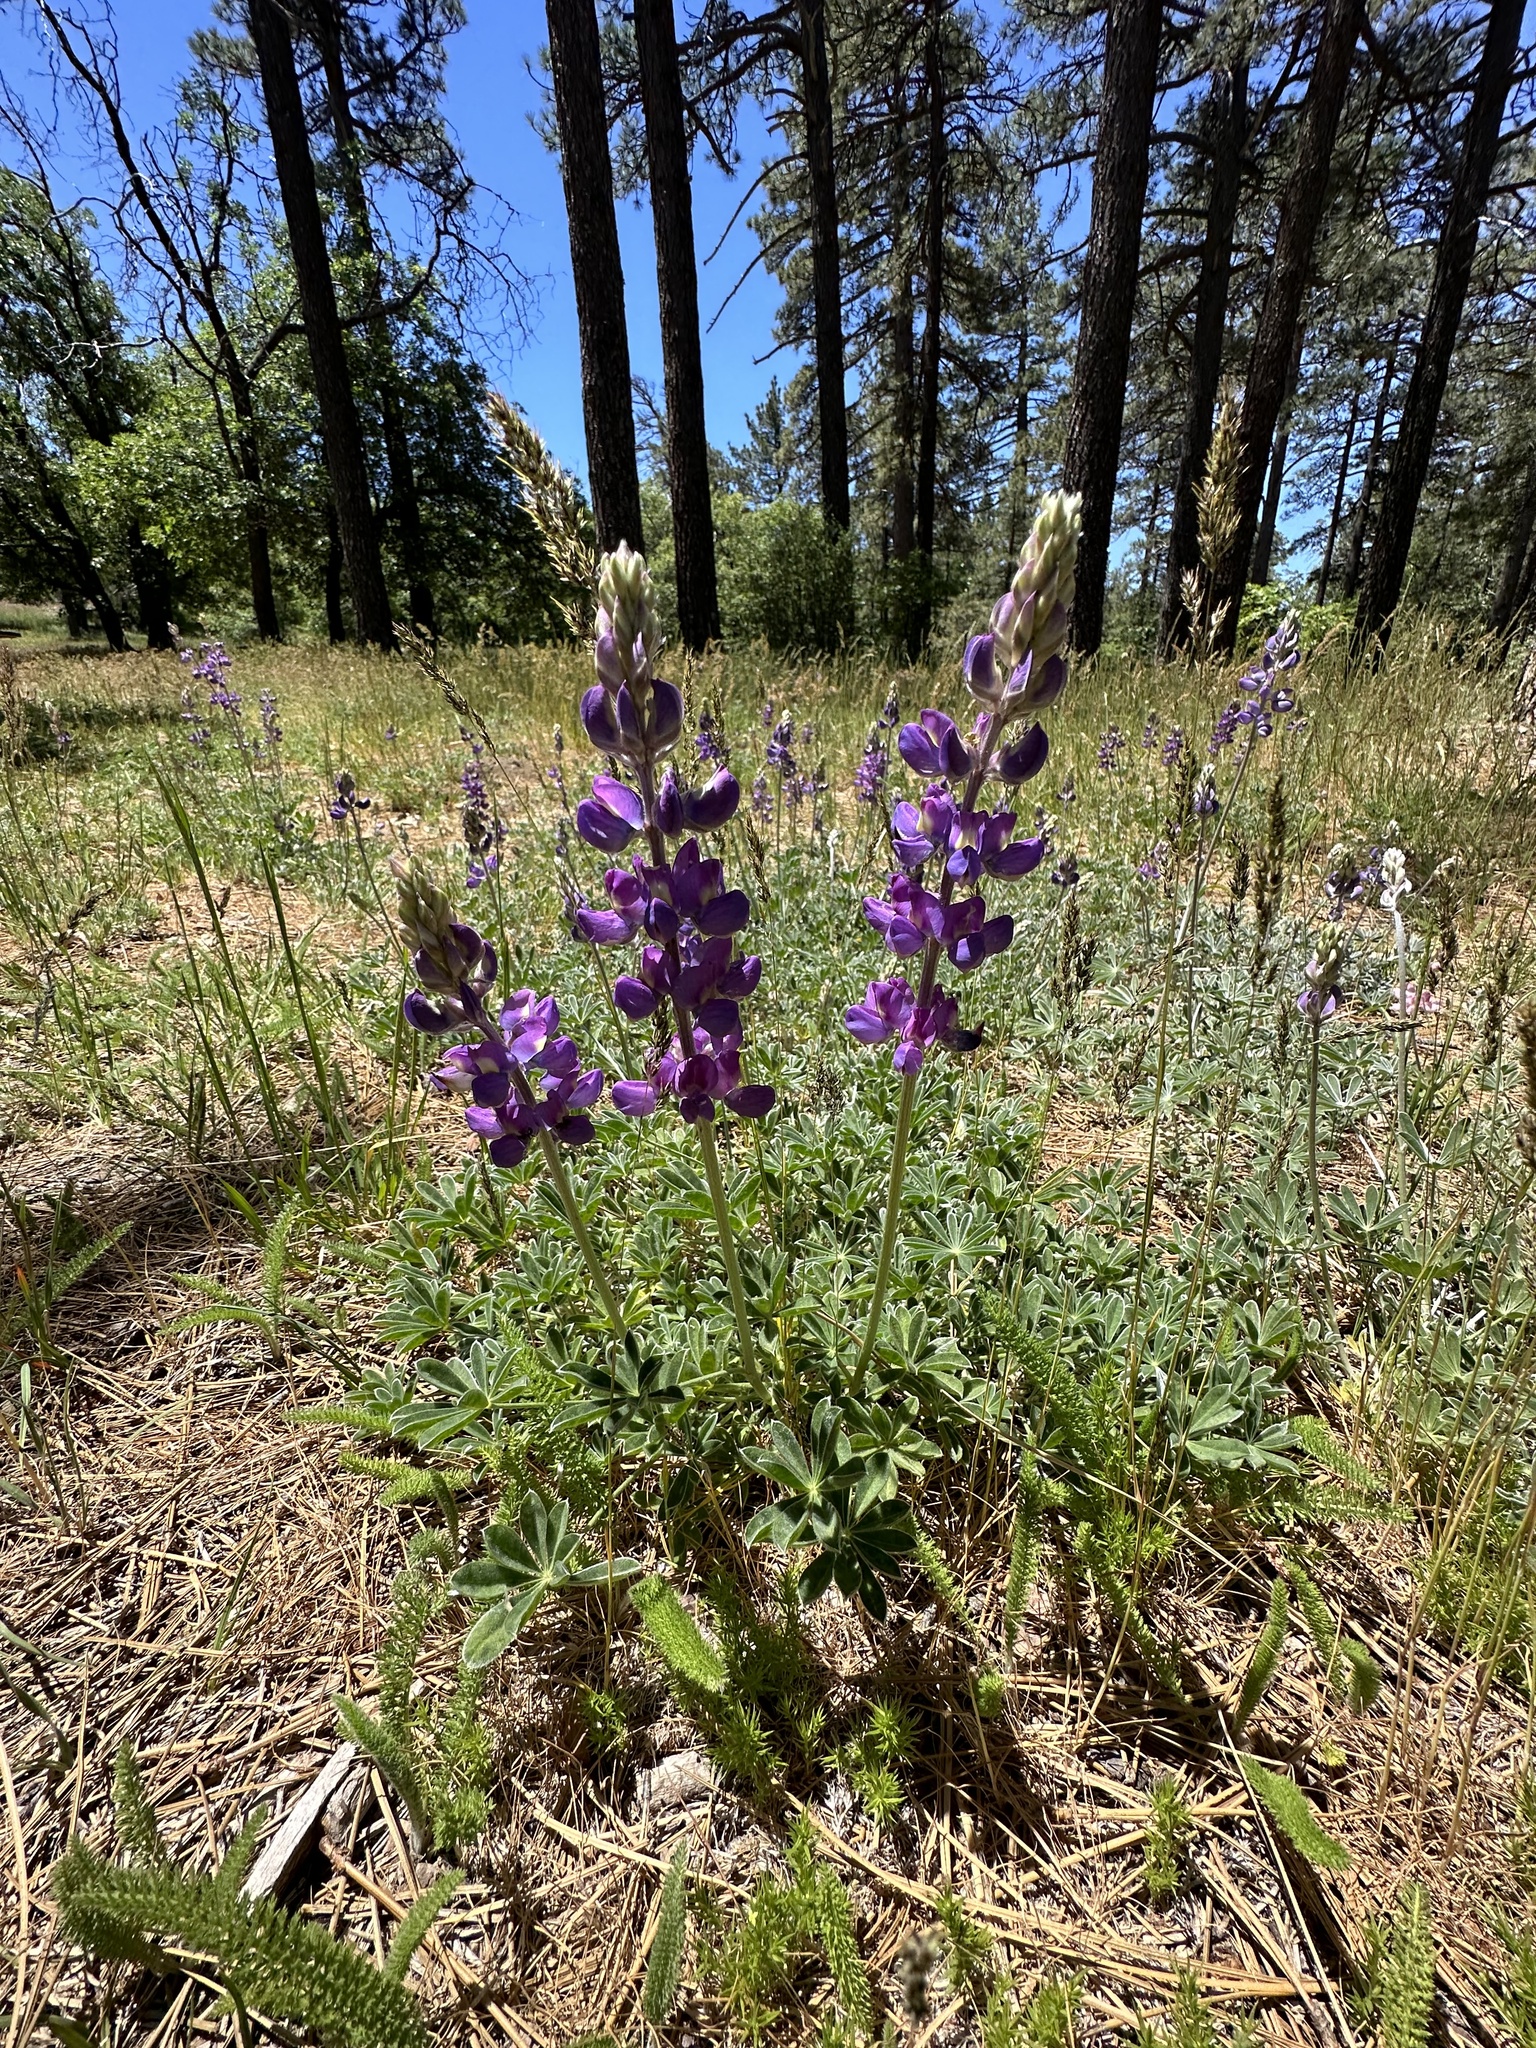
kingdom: Plantae
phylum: Tracheophyta
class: Magnoliopsida
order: Fabales
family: Fabaceae
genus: Lupinus
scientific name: Lupinus excubitus
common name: Grape soda lupine
